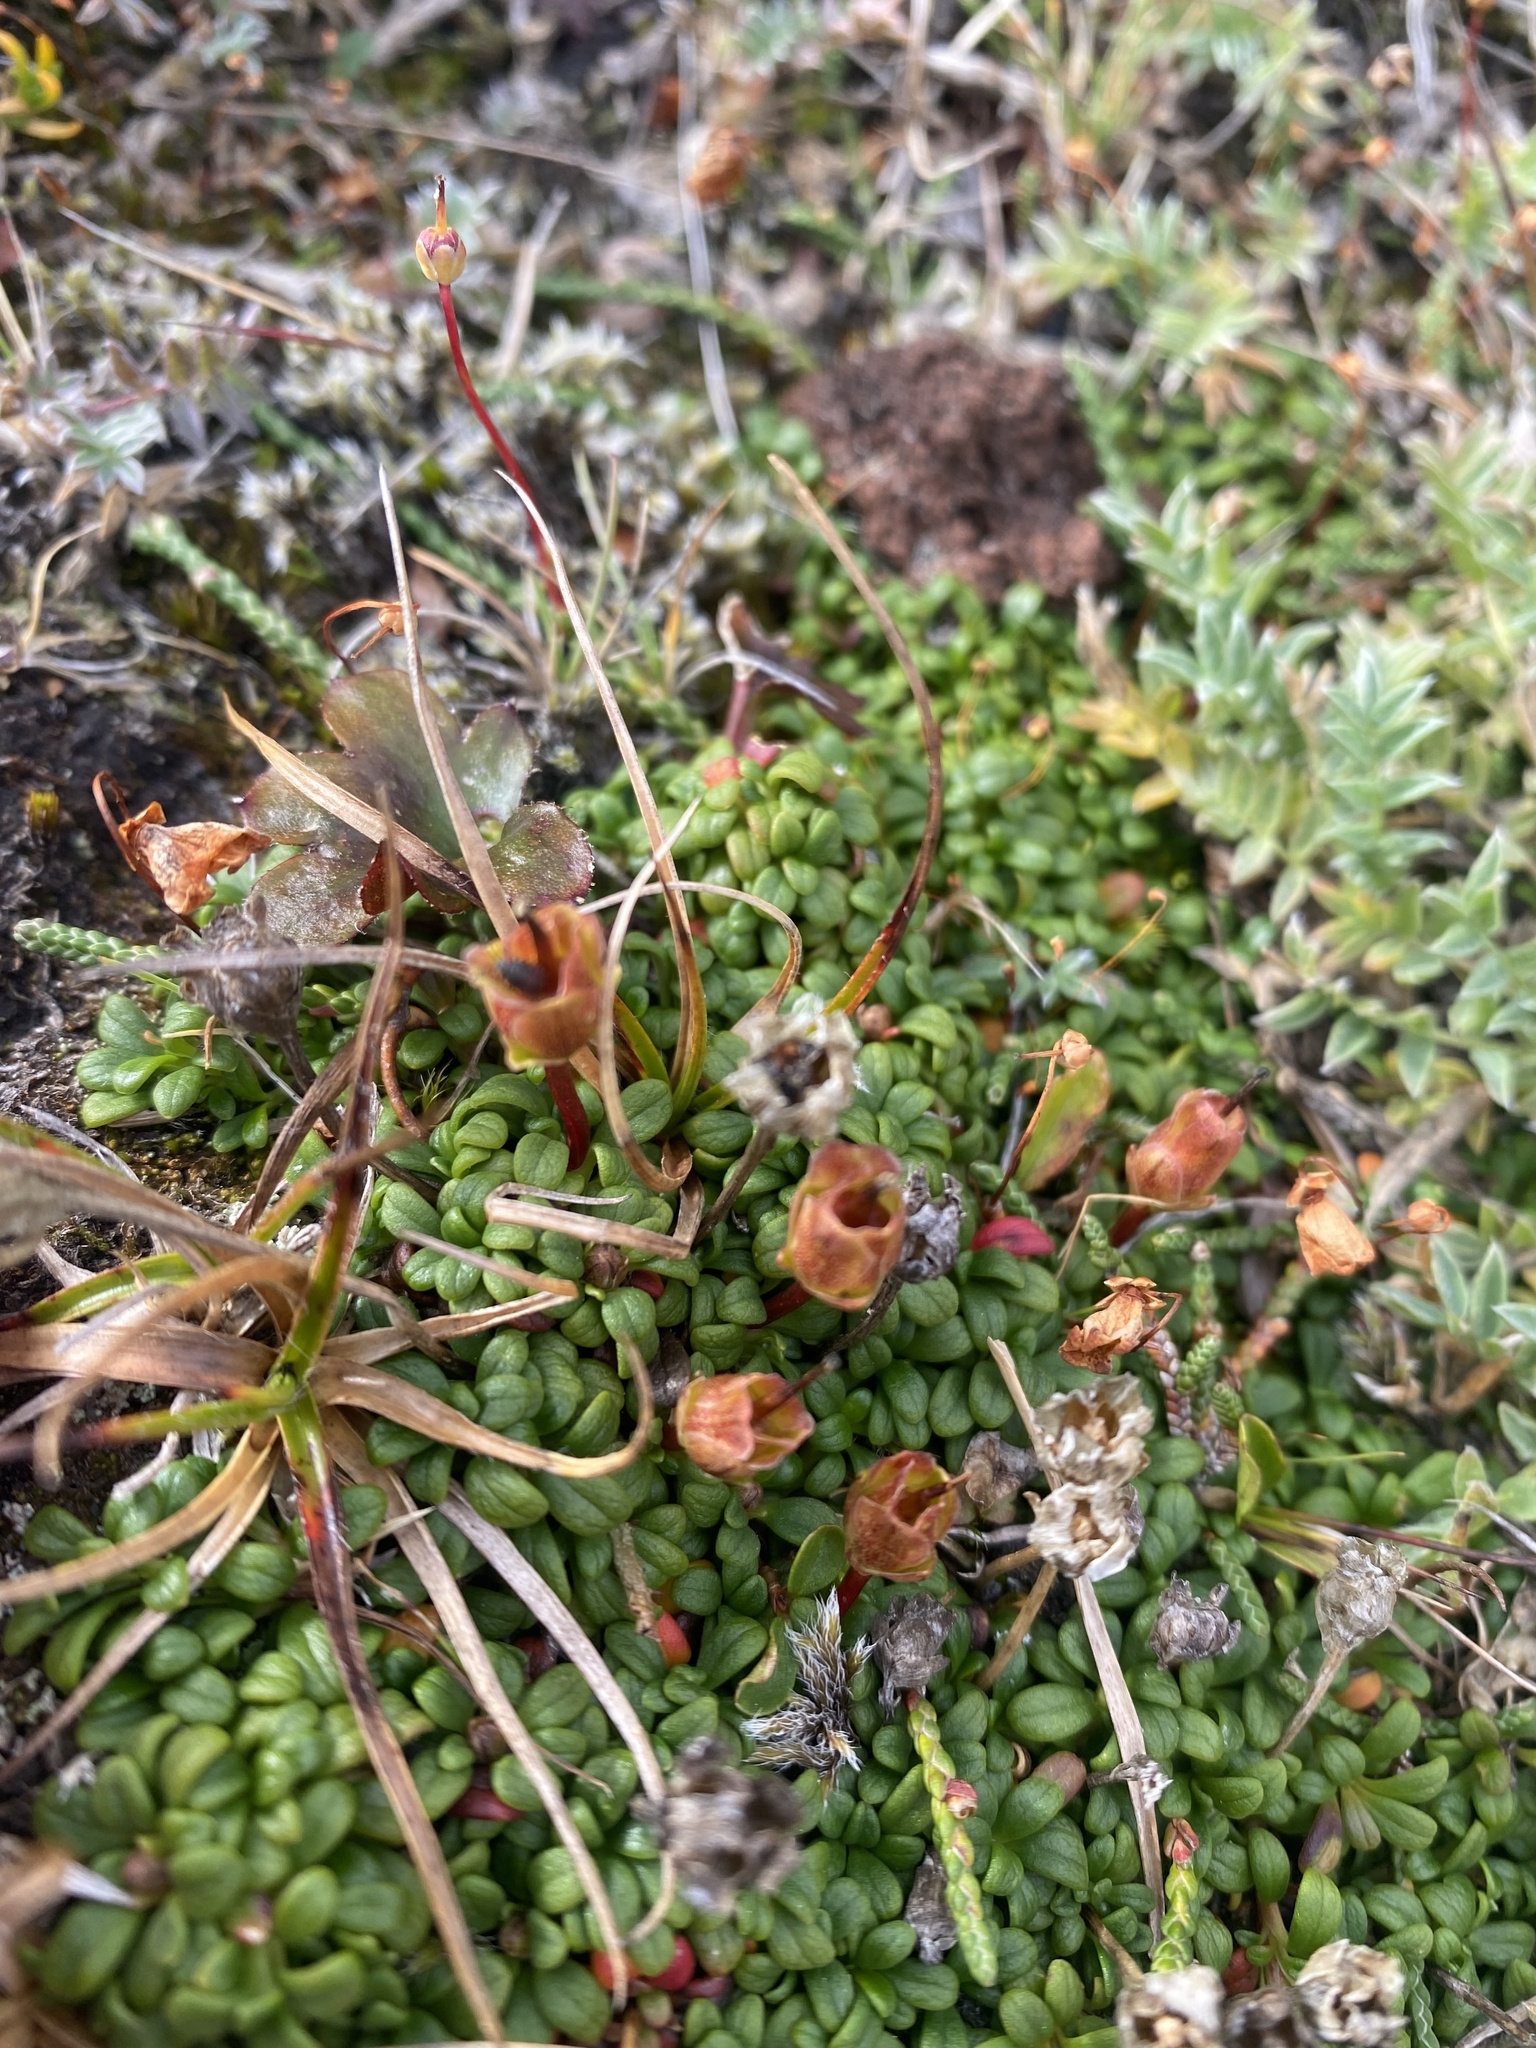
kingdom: Plantae
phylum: Tracheophyta
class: Magnoliopsida
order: Ericales
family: Diapensiaceae
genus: Diapensia
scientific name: Diapensia obovata
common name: Alaska diapensia
